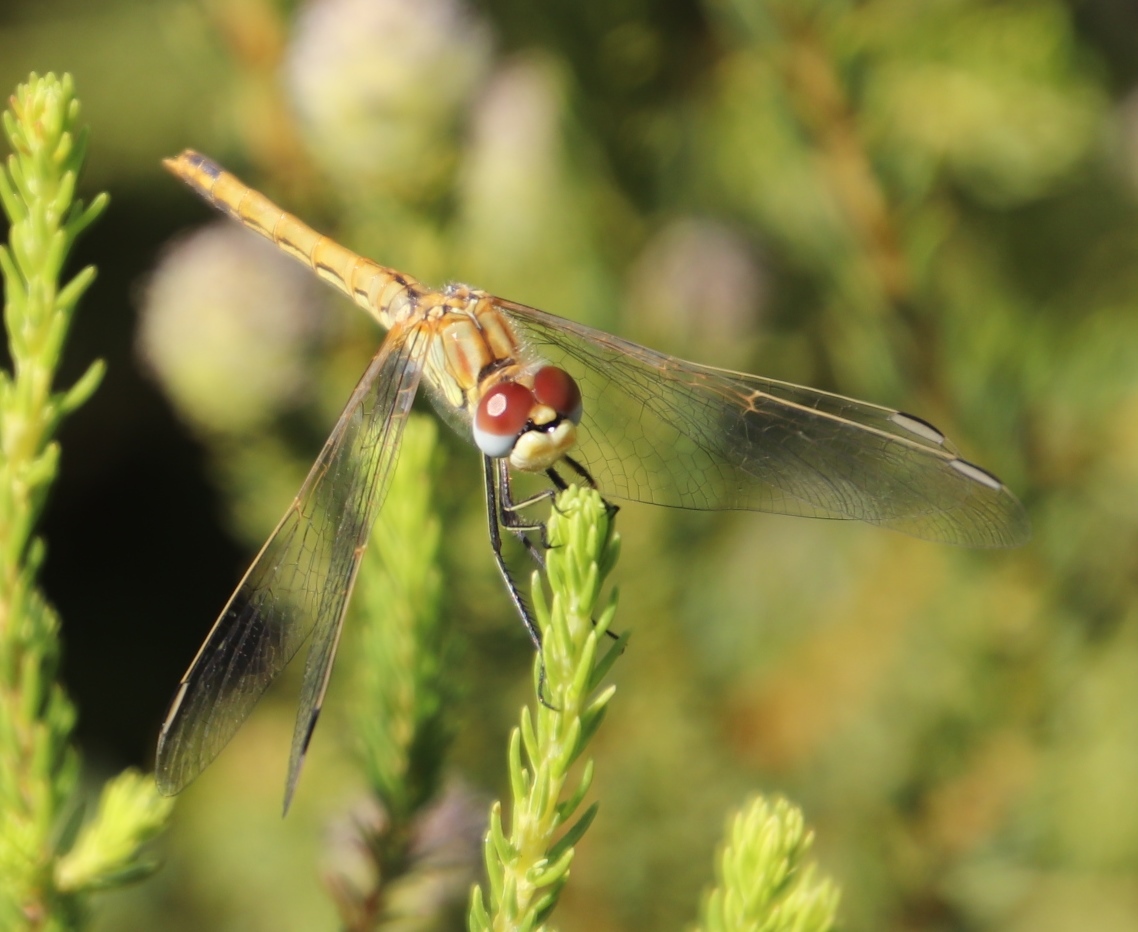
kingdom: Animalia
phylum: Arthropoda
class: Insecta
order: Odonata
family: Libellulidae
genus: Sympetrum
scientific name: Sympetrum fonscolombii
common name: Red-veined darter
